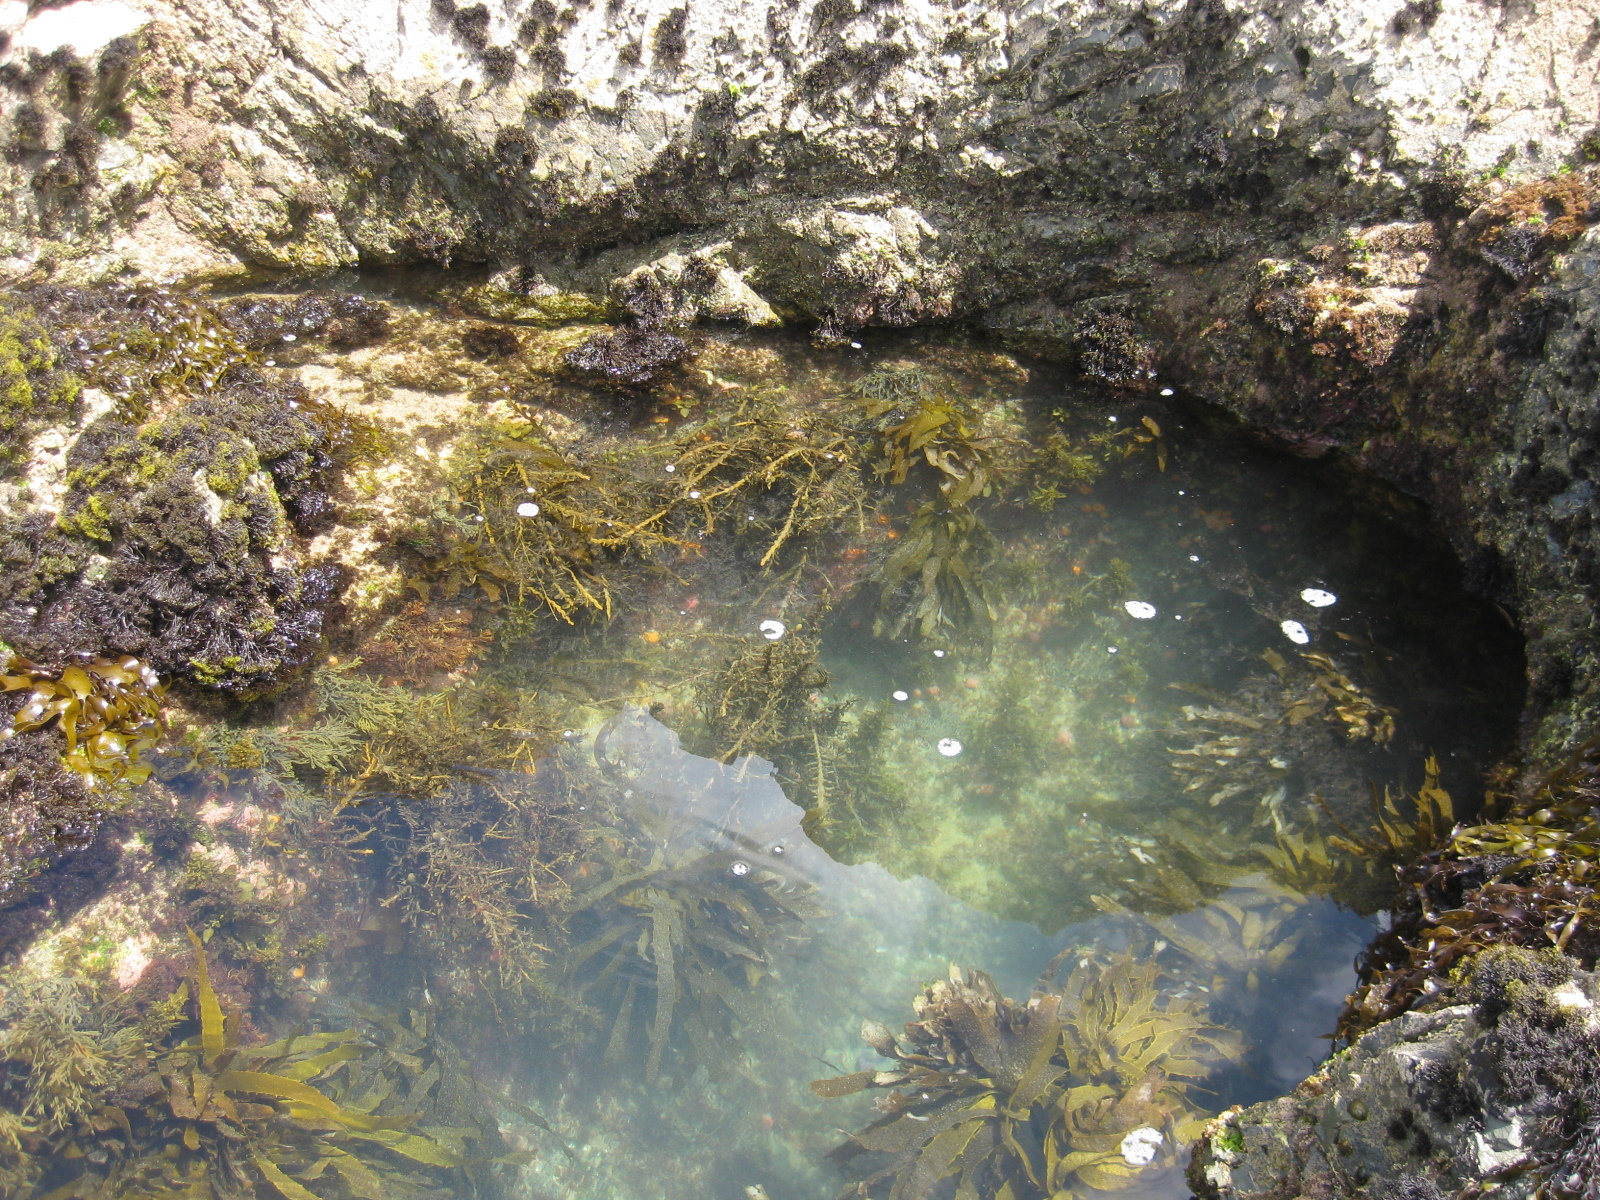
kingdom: Chromista
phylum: Ochrophyta
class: Phaeophyceae
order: Fucales
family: Sargassaceae
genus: Carpophyllum
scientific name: Carpophyllum maschalocarpum
